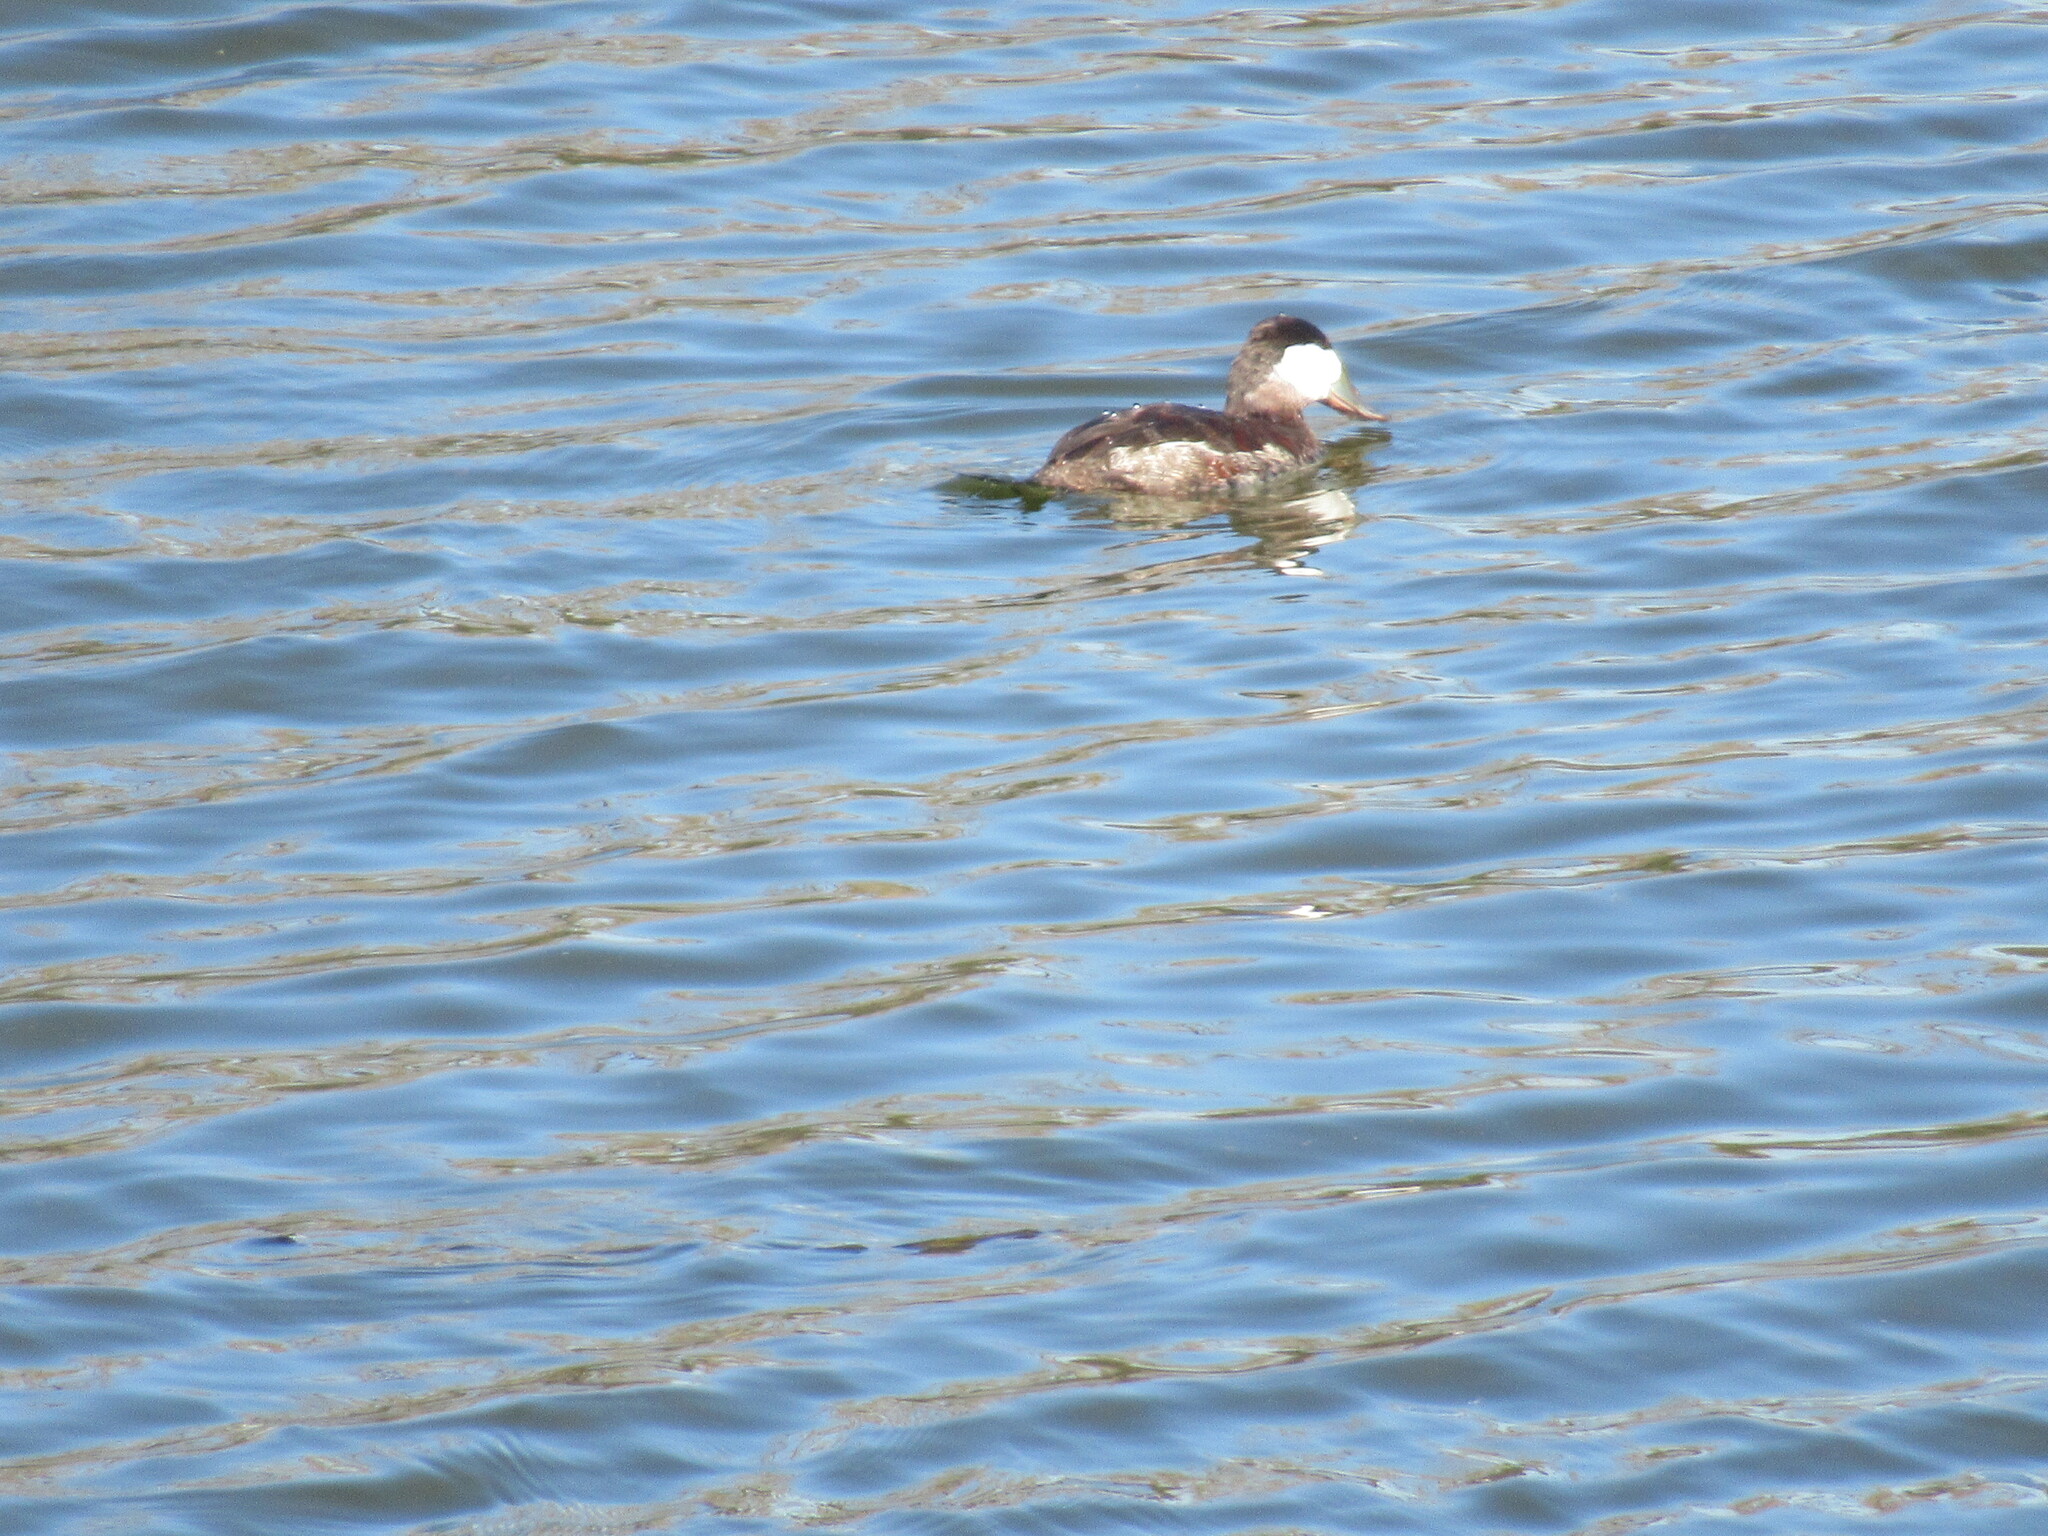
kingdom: Animalia
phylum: Chordata
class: Aves
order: Anseriformes
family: Anatidae
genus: Oxyura
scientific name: Oxyura jamaicensis
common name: Ruddy duck
